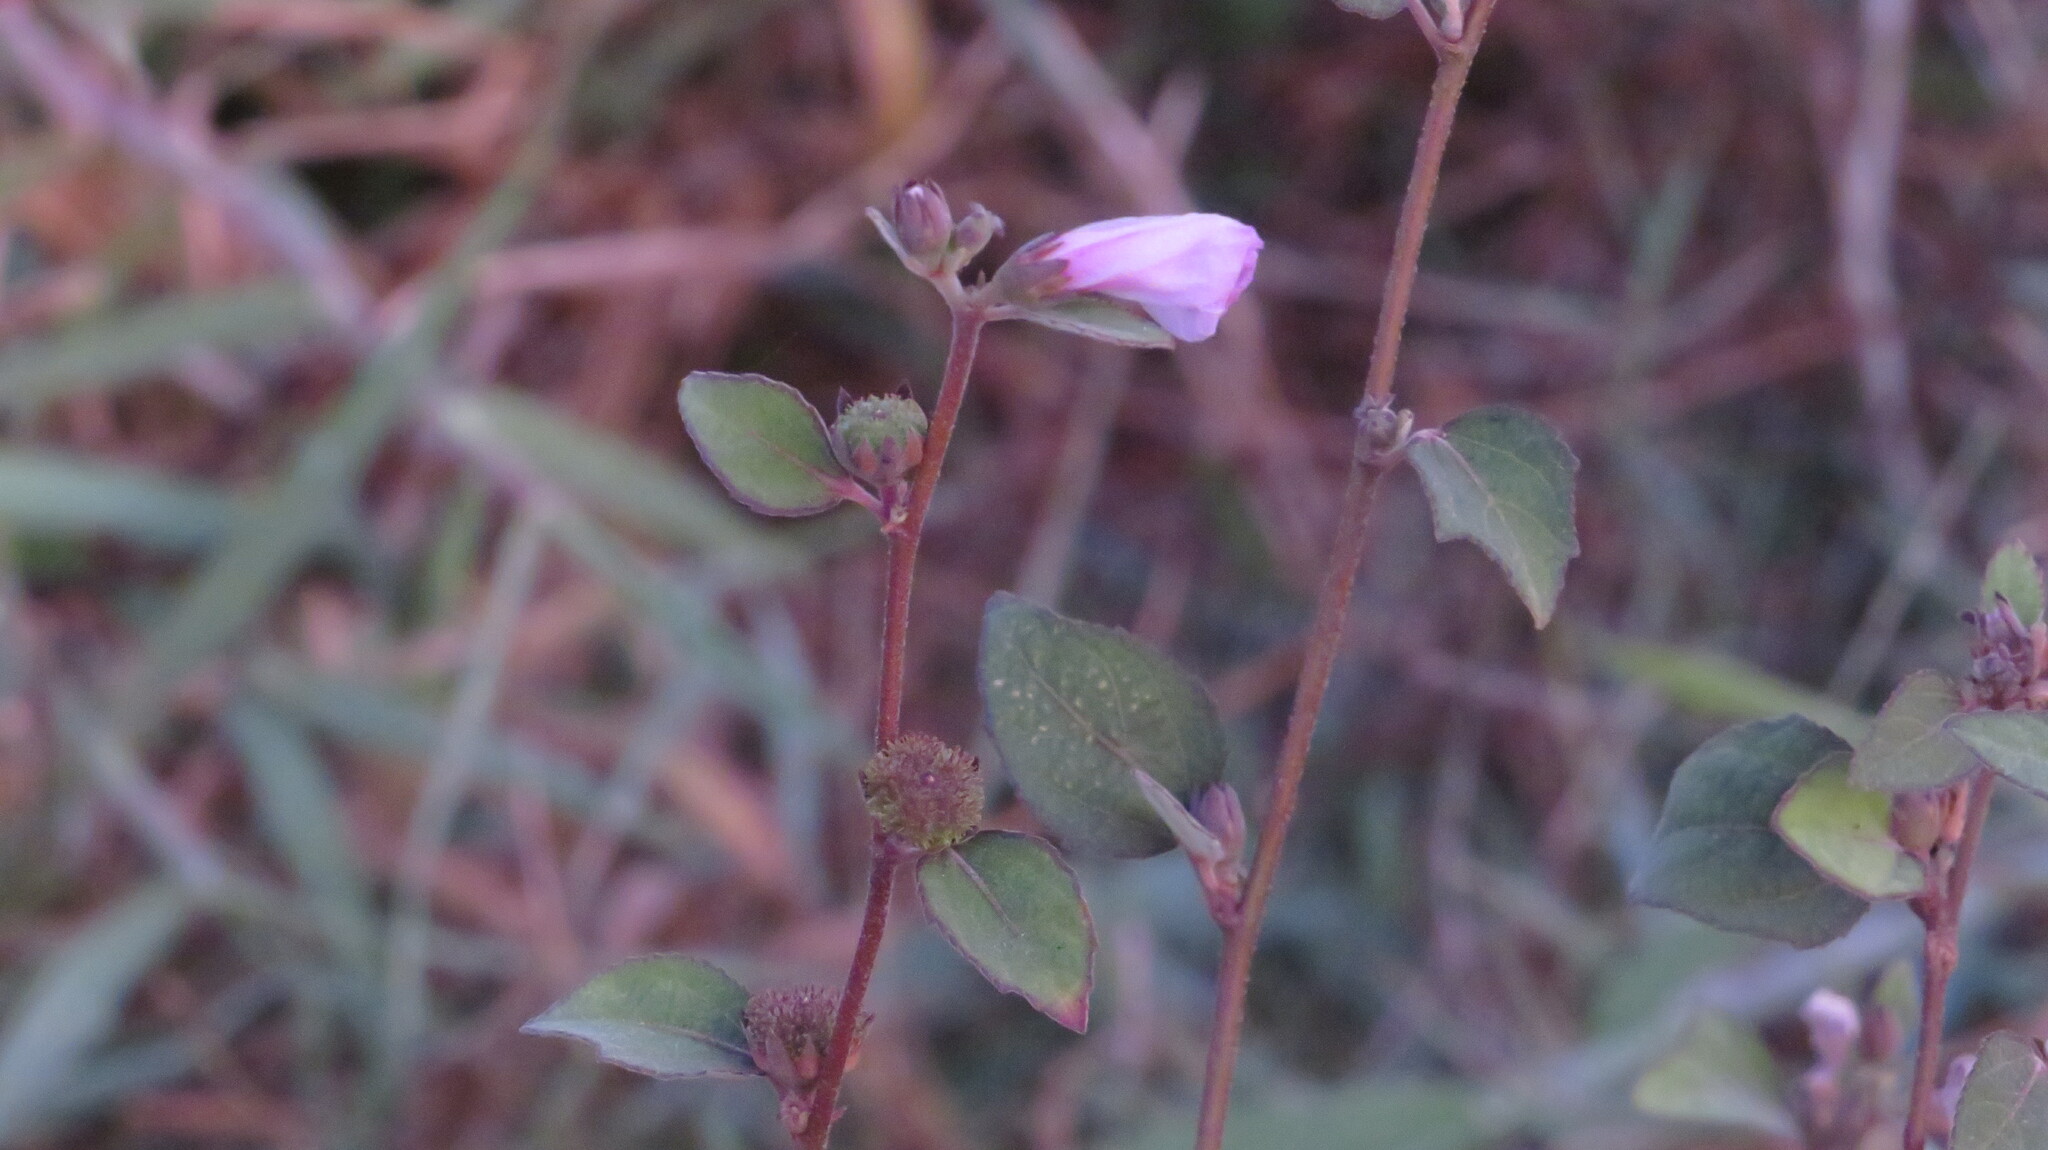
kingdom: Plantae
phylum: Tracheophyta
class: Magnoliopsida
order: Malvales
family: Malvaceae
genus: Urena
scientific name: Urena lobata
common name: Caesarweed
